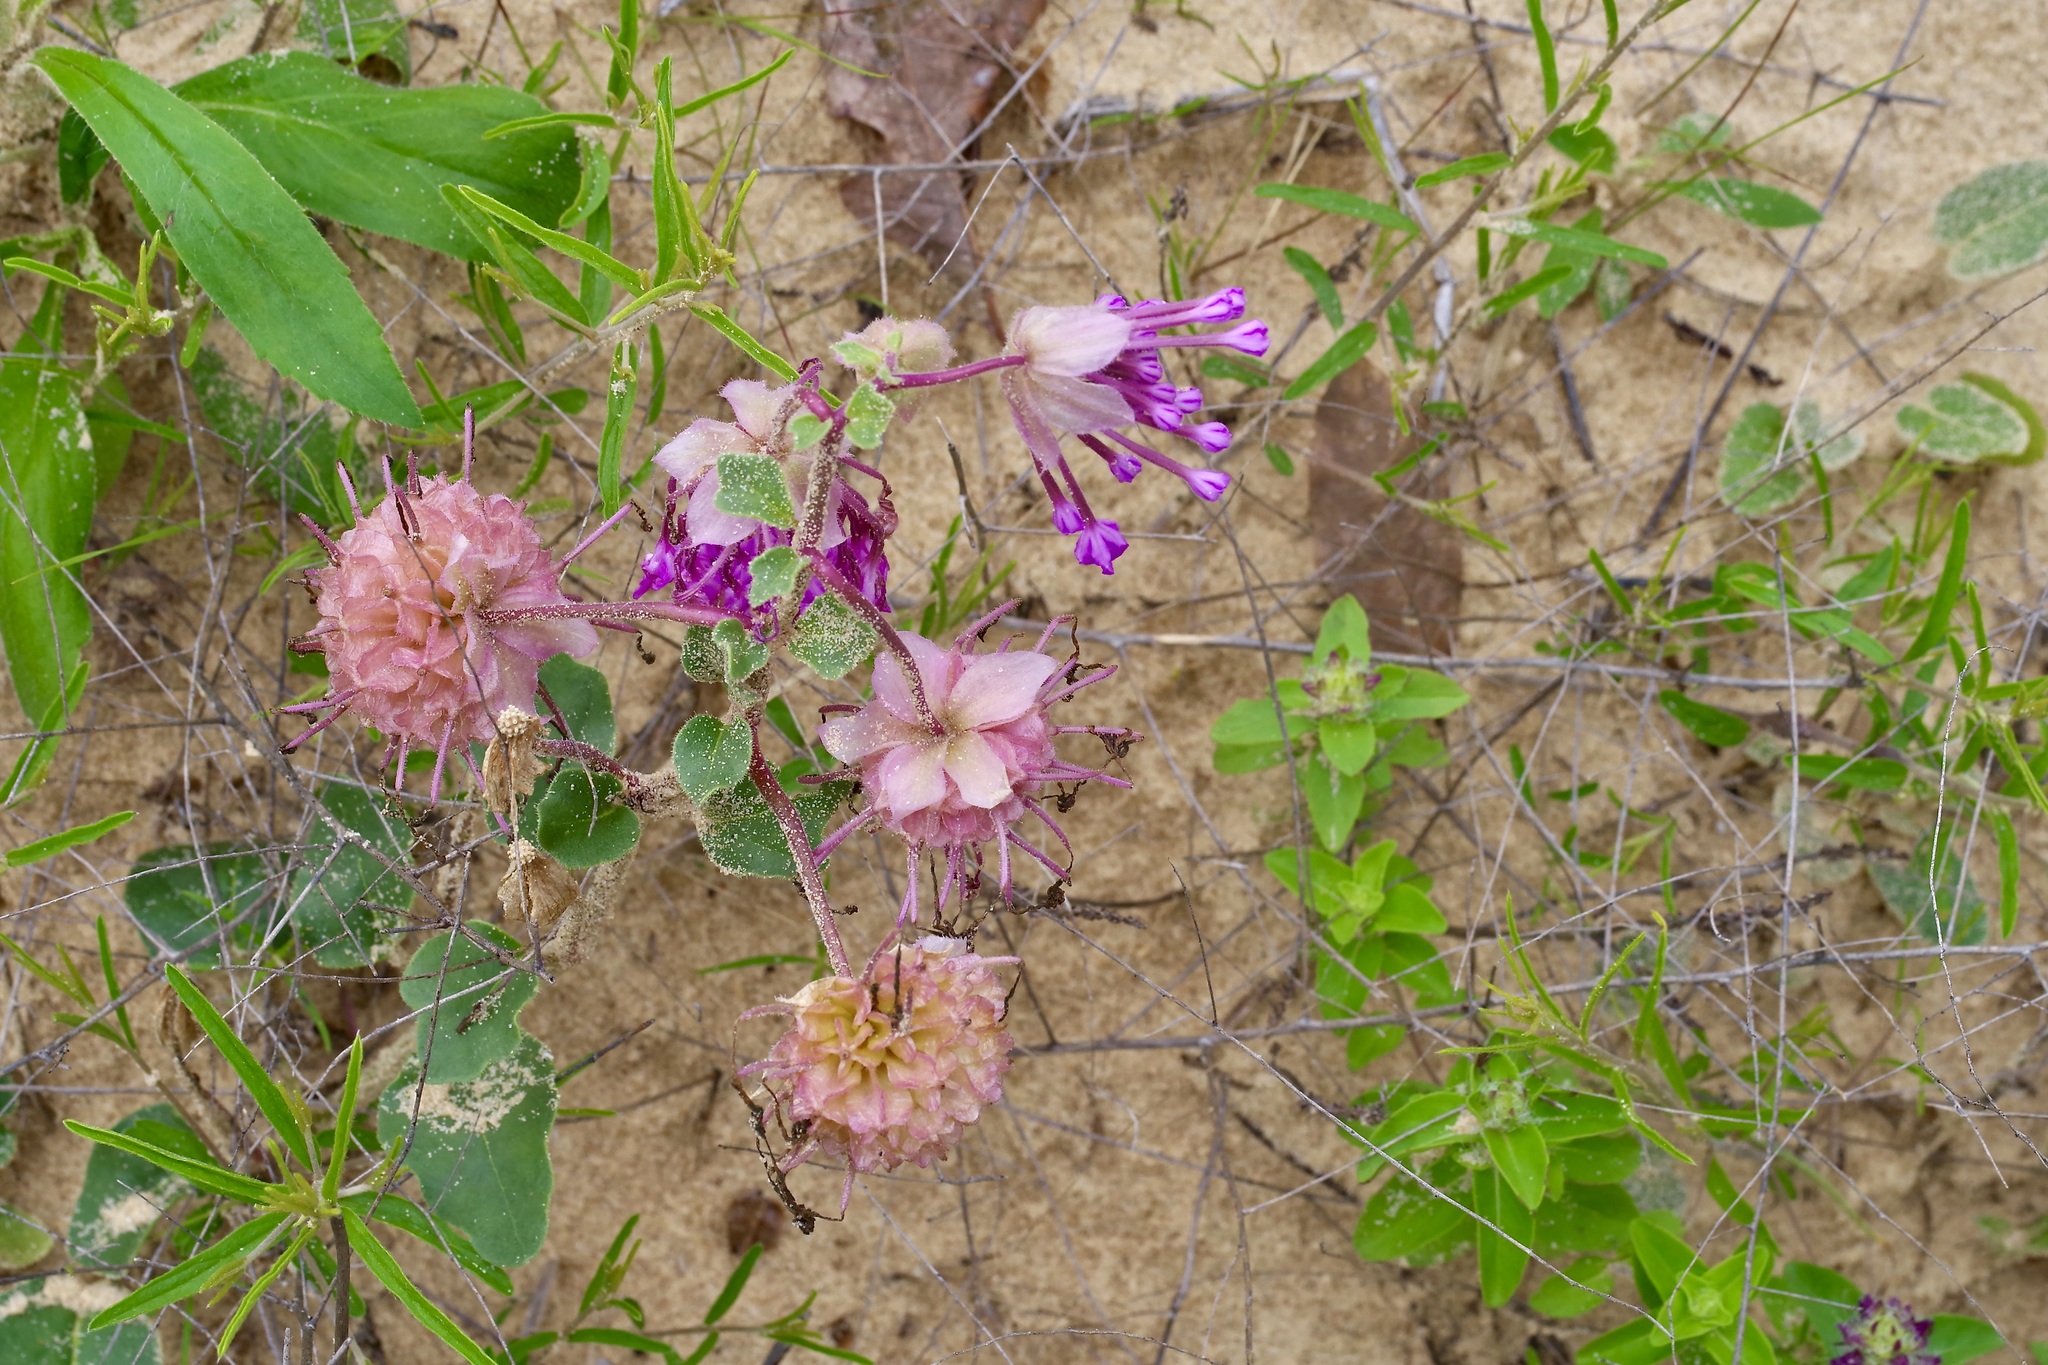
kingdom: Plantae
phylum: Tracheophyta
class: Magnoliopsida
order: Caryophyllales
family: Nyctaginaceae
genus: Abronia
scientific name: Abronia macrocarpa
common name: Large-fruit sand-verbena
